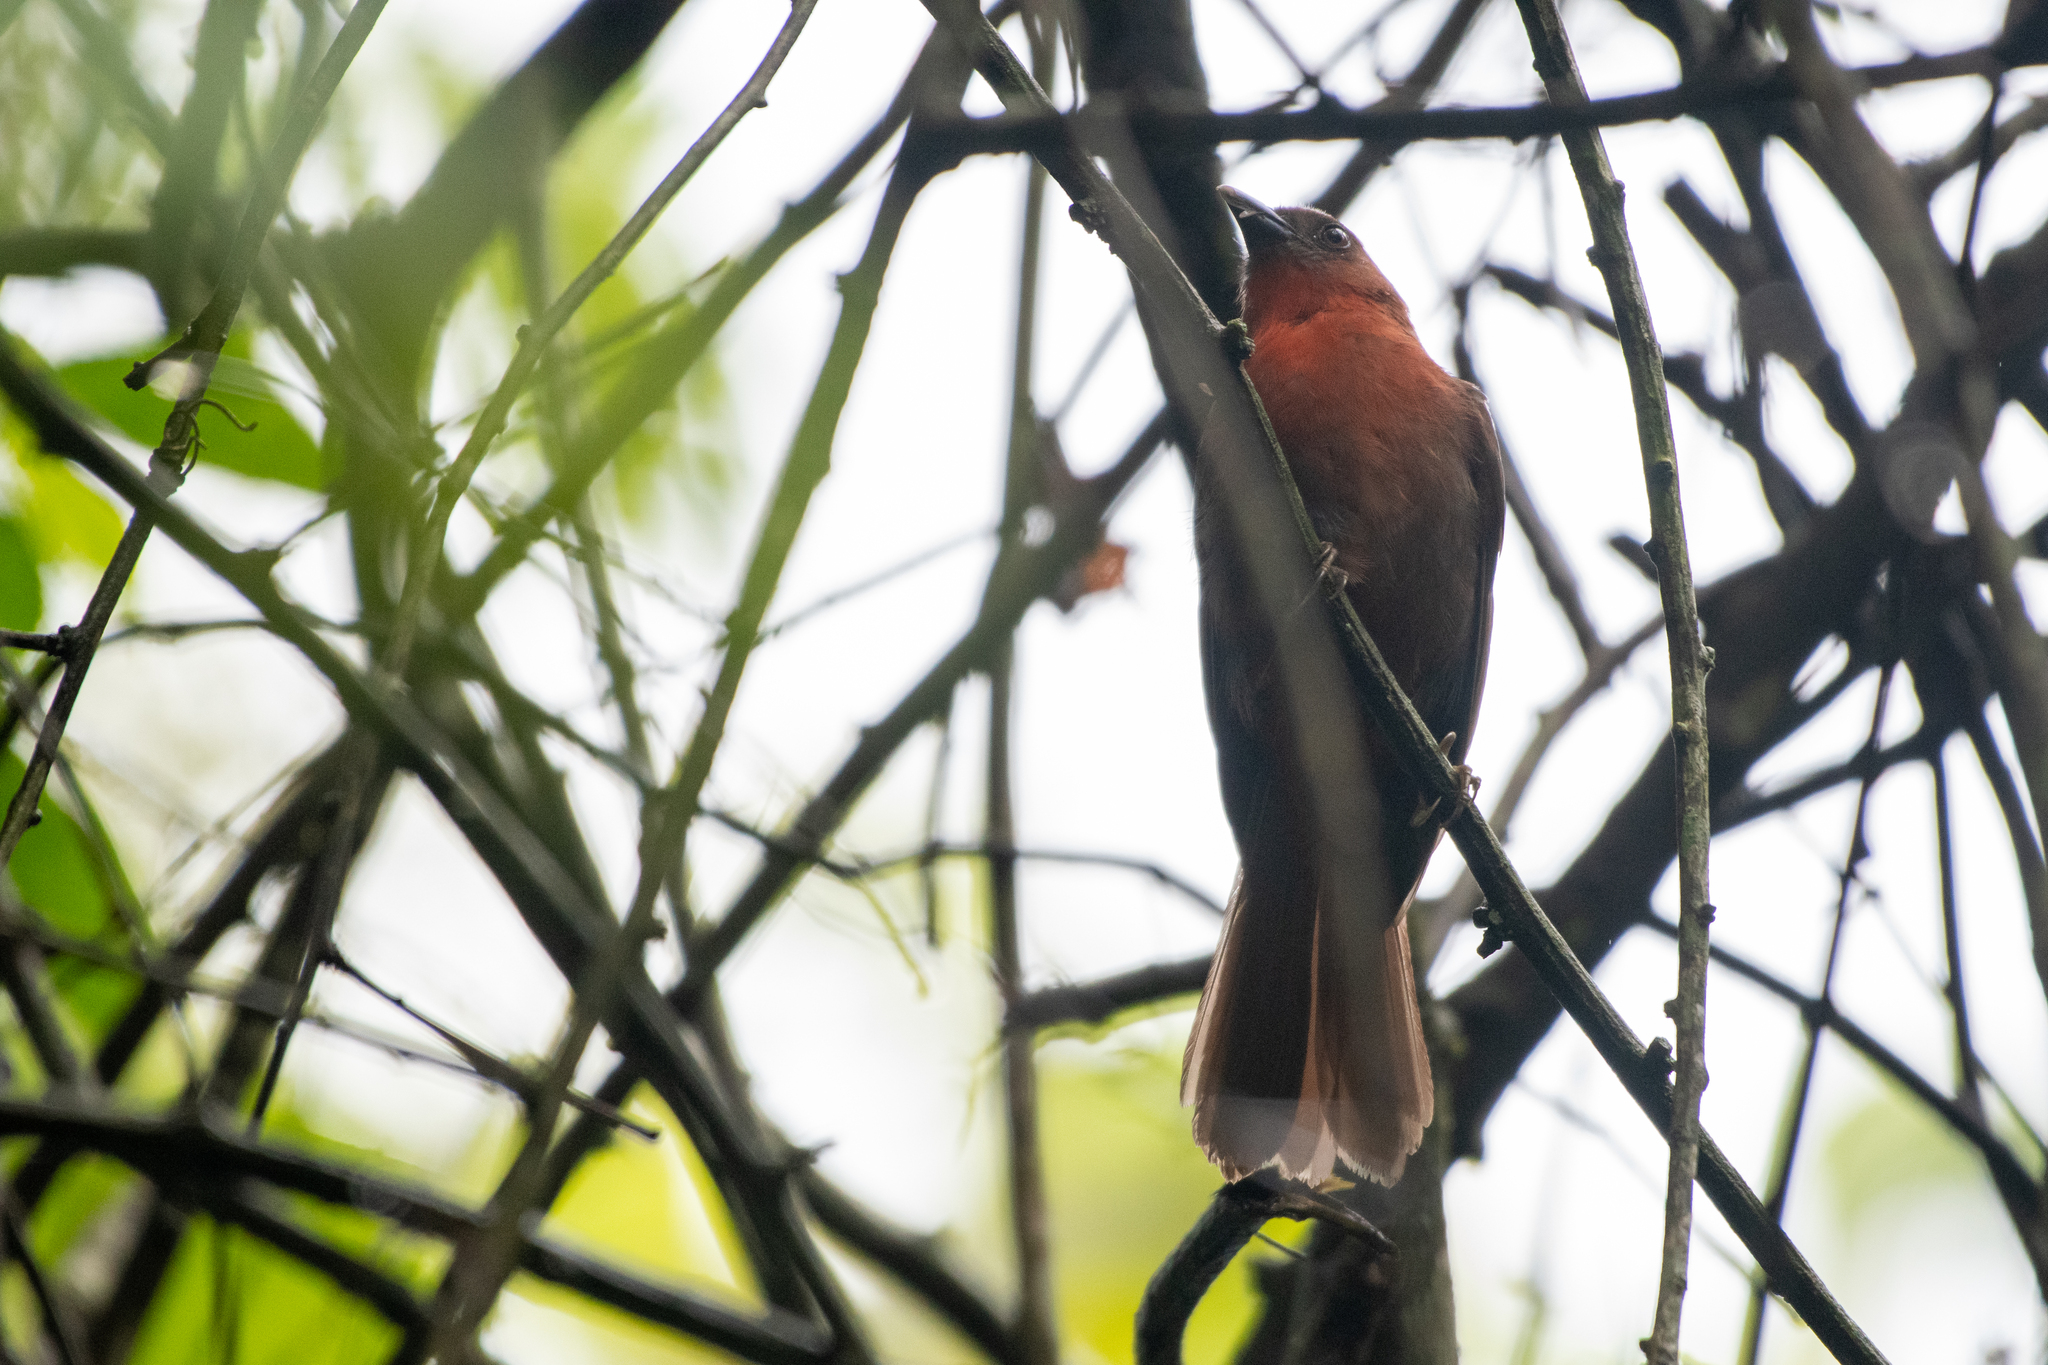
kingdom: Animalia
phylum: Chordata
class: Aves
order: Passeriformes
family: Cardinalidae
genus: Habia
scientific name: Habia fuscicauda
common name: Red-throated ant-tanager
